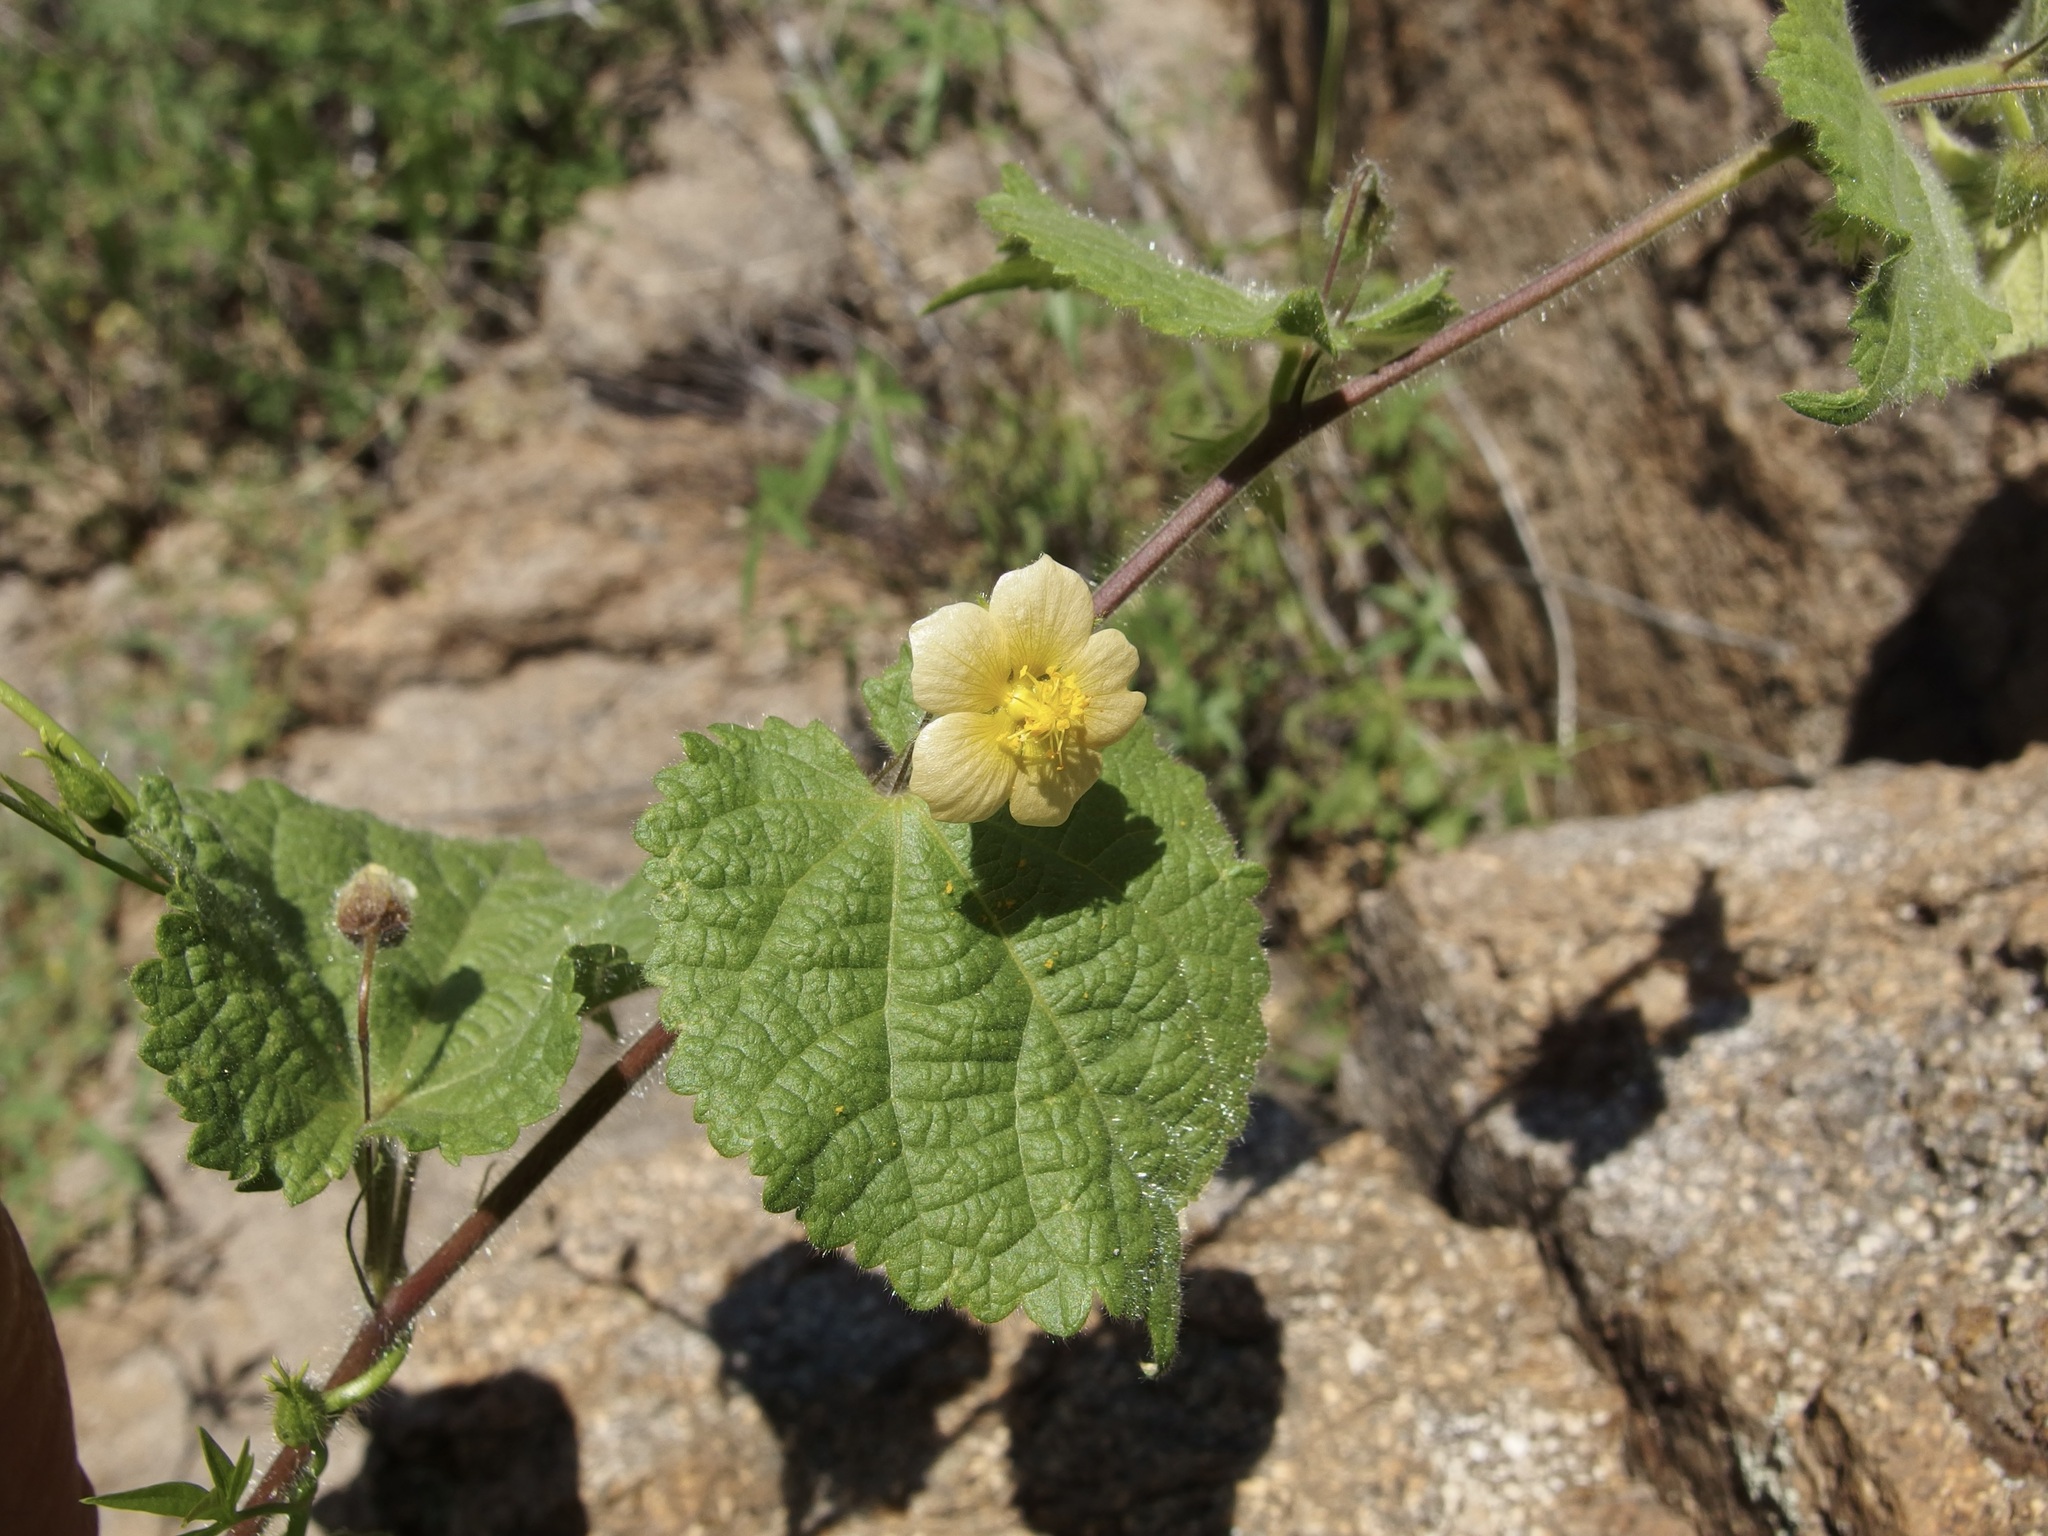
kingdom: Plantae
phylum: Tracheophyta
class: Magnoliopsida
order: Malvales
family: Malvaceae
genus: Herissantia
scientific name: Herissantia crispa
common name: Bladdermallow
